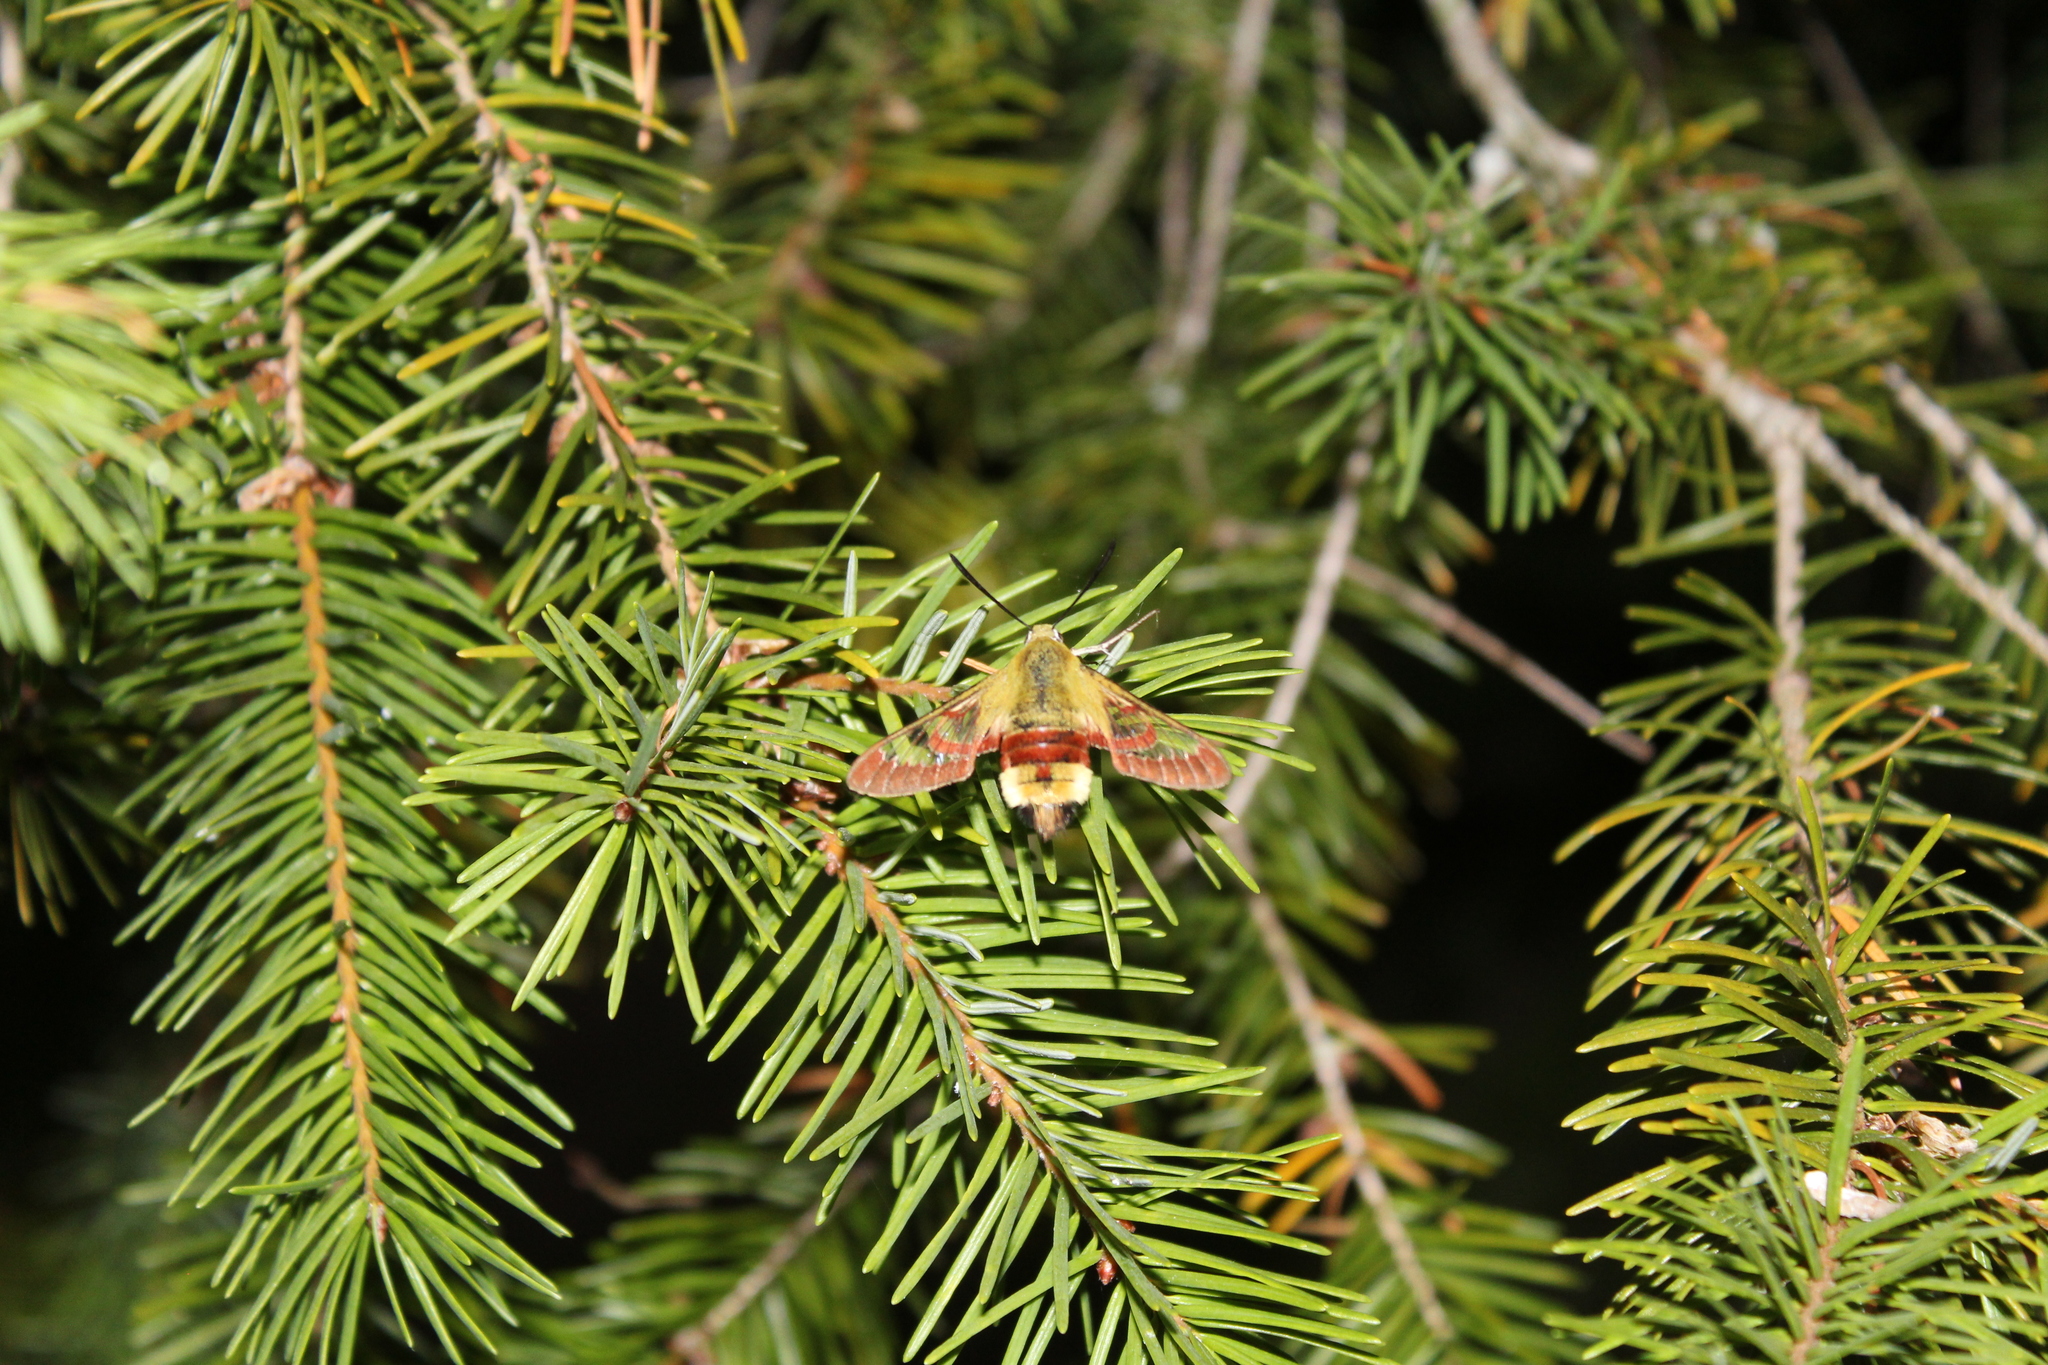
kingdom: Animalia
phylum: Arthropoda
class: Insecta
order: Lepidoptera
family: Sphingidae
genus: Hemaris
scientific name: Hemaris fuciformis
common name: Broad-bordered bee hawk-moth
